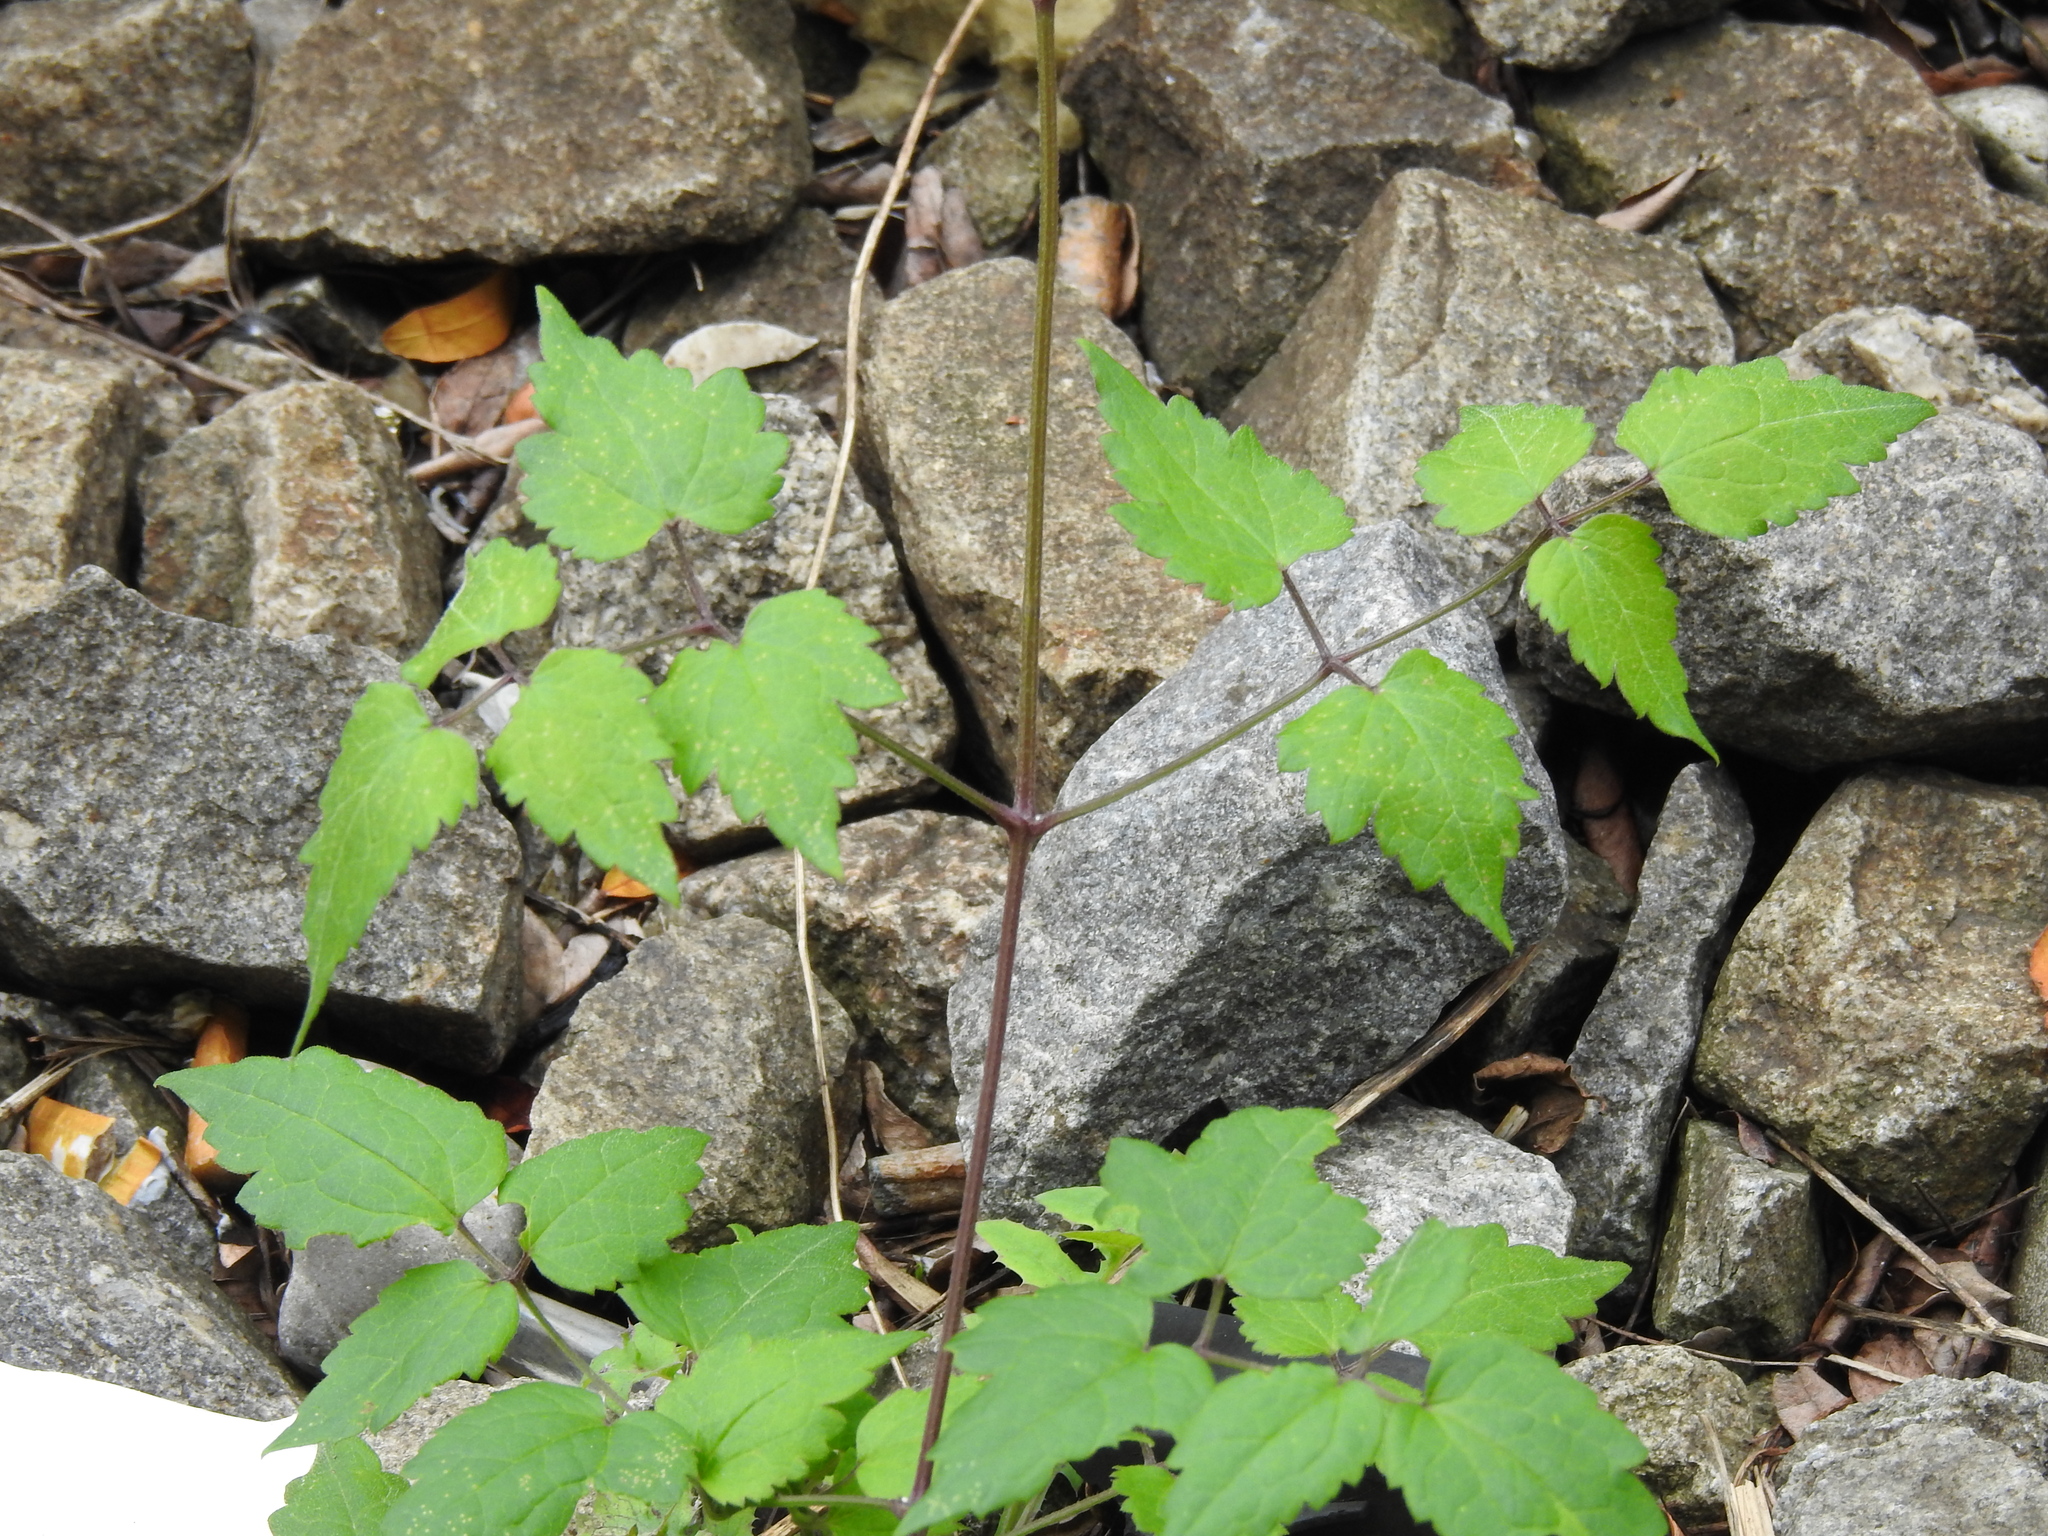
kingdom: Plantae
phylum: Tracheophyta
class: Magnoliopsida
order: Ranunculales
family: Ranunculaceae
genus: Clematis
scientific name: Clematis vitalba
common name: Evergreen clematis
